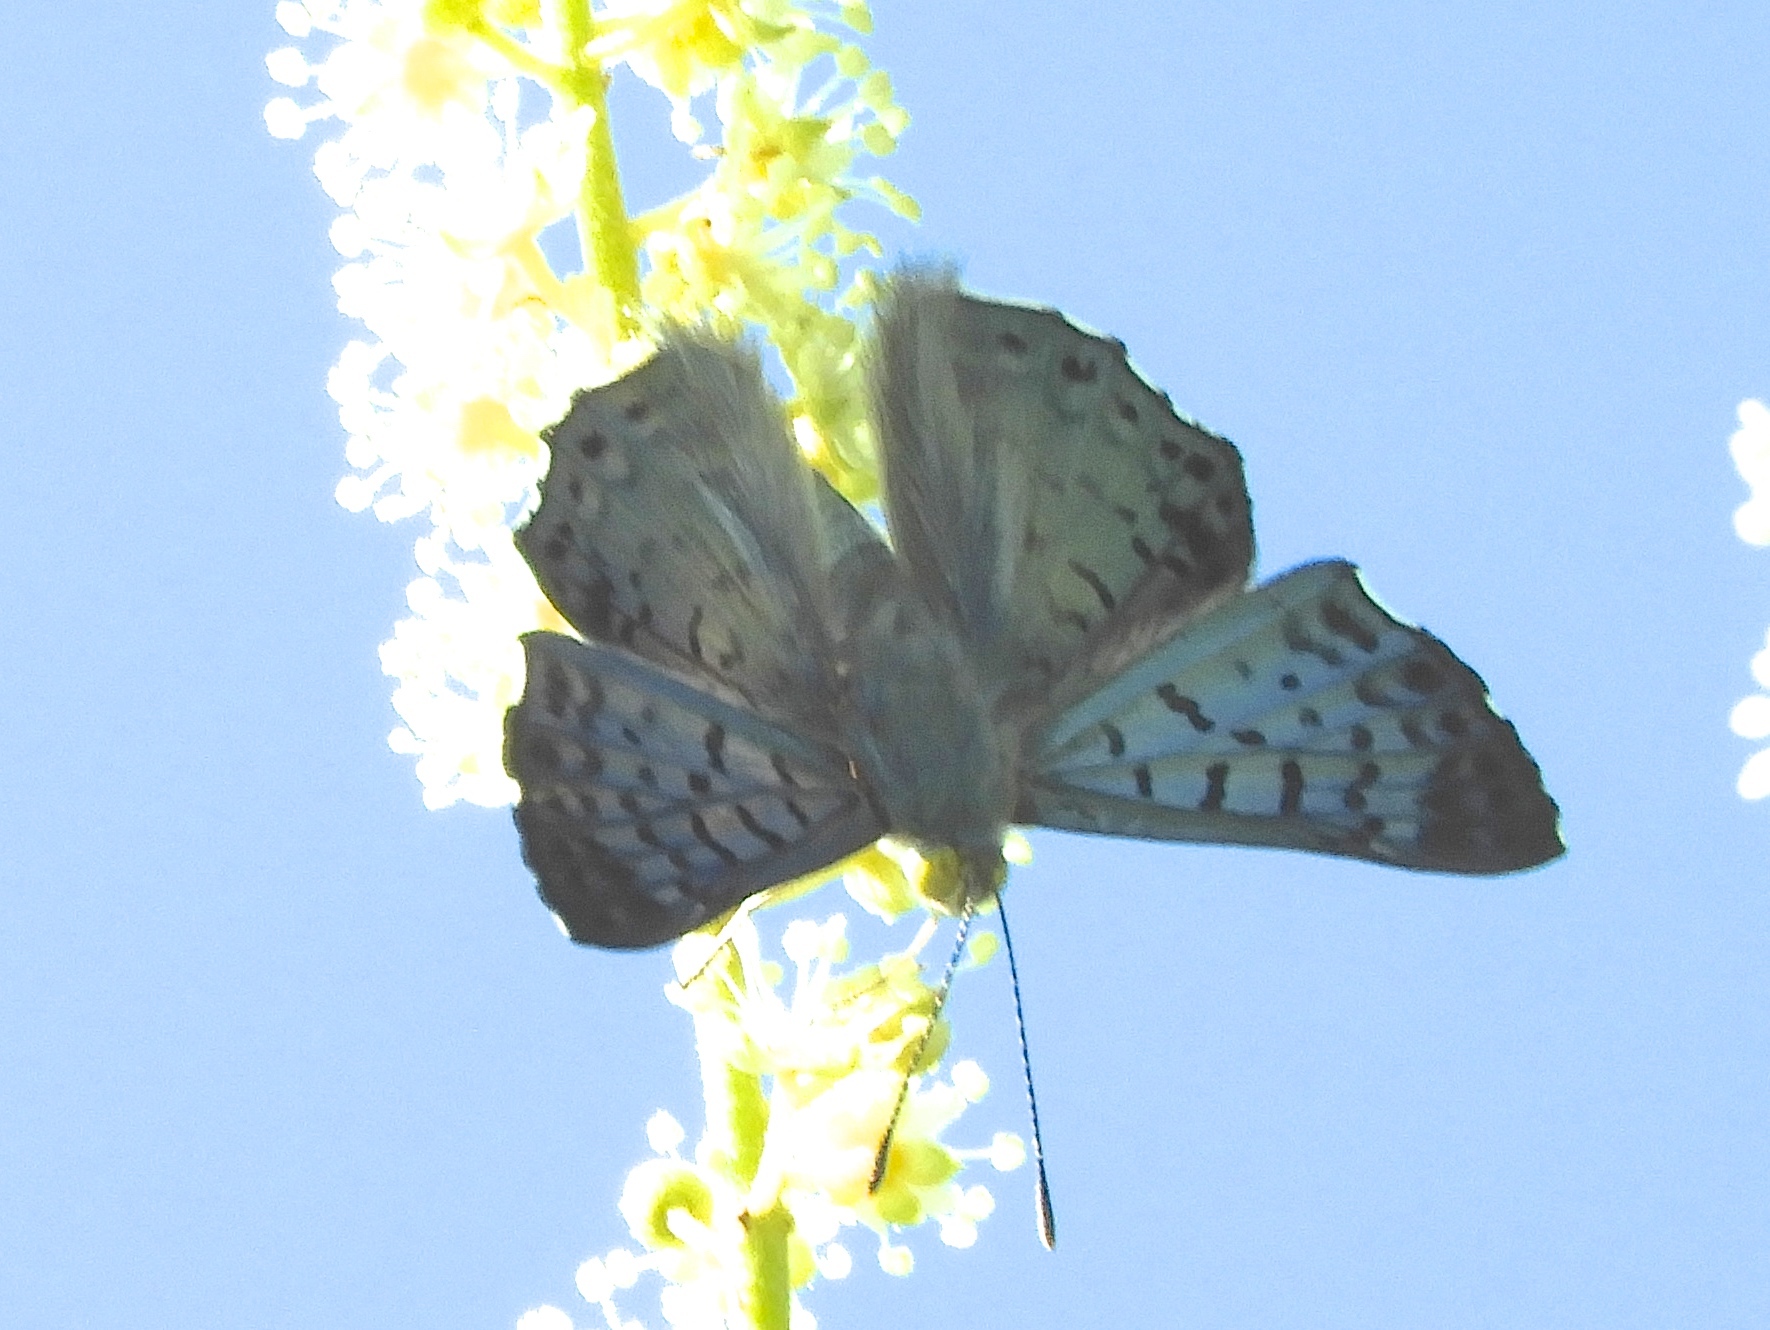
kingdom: Animalia
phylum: Arthropoda
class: Insecta
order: Lepidoptera
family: Riodinidae
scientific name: Riodinidae
